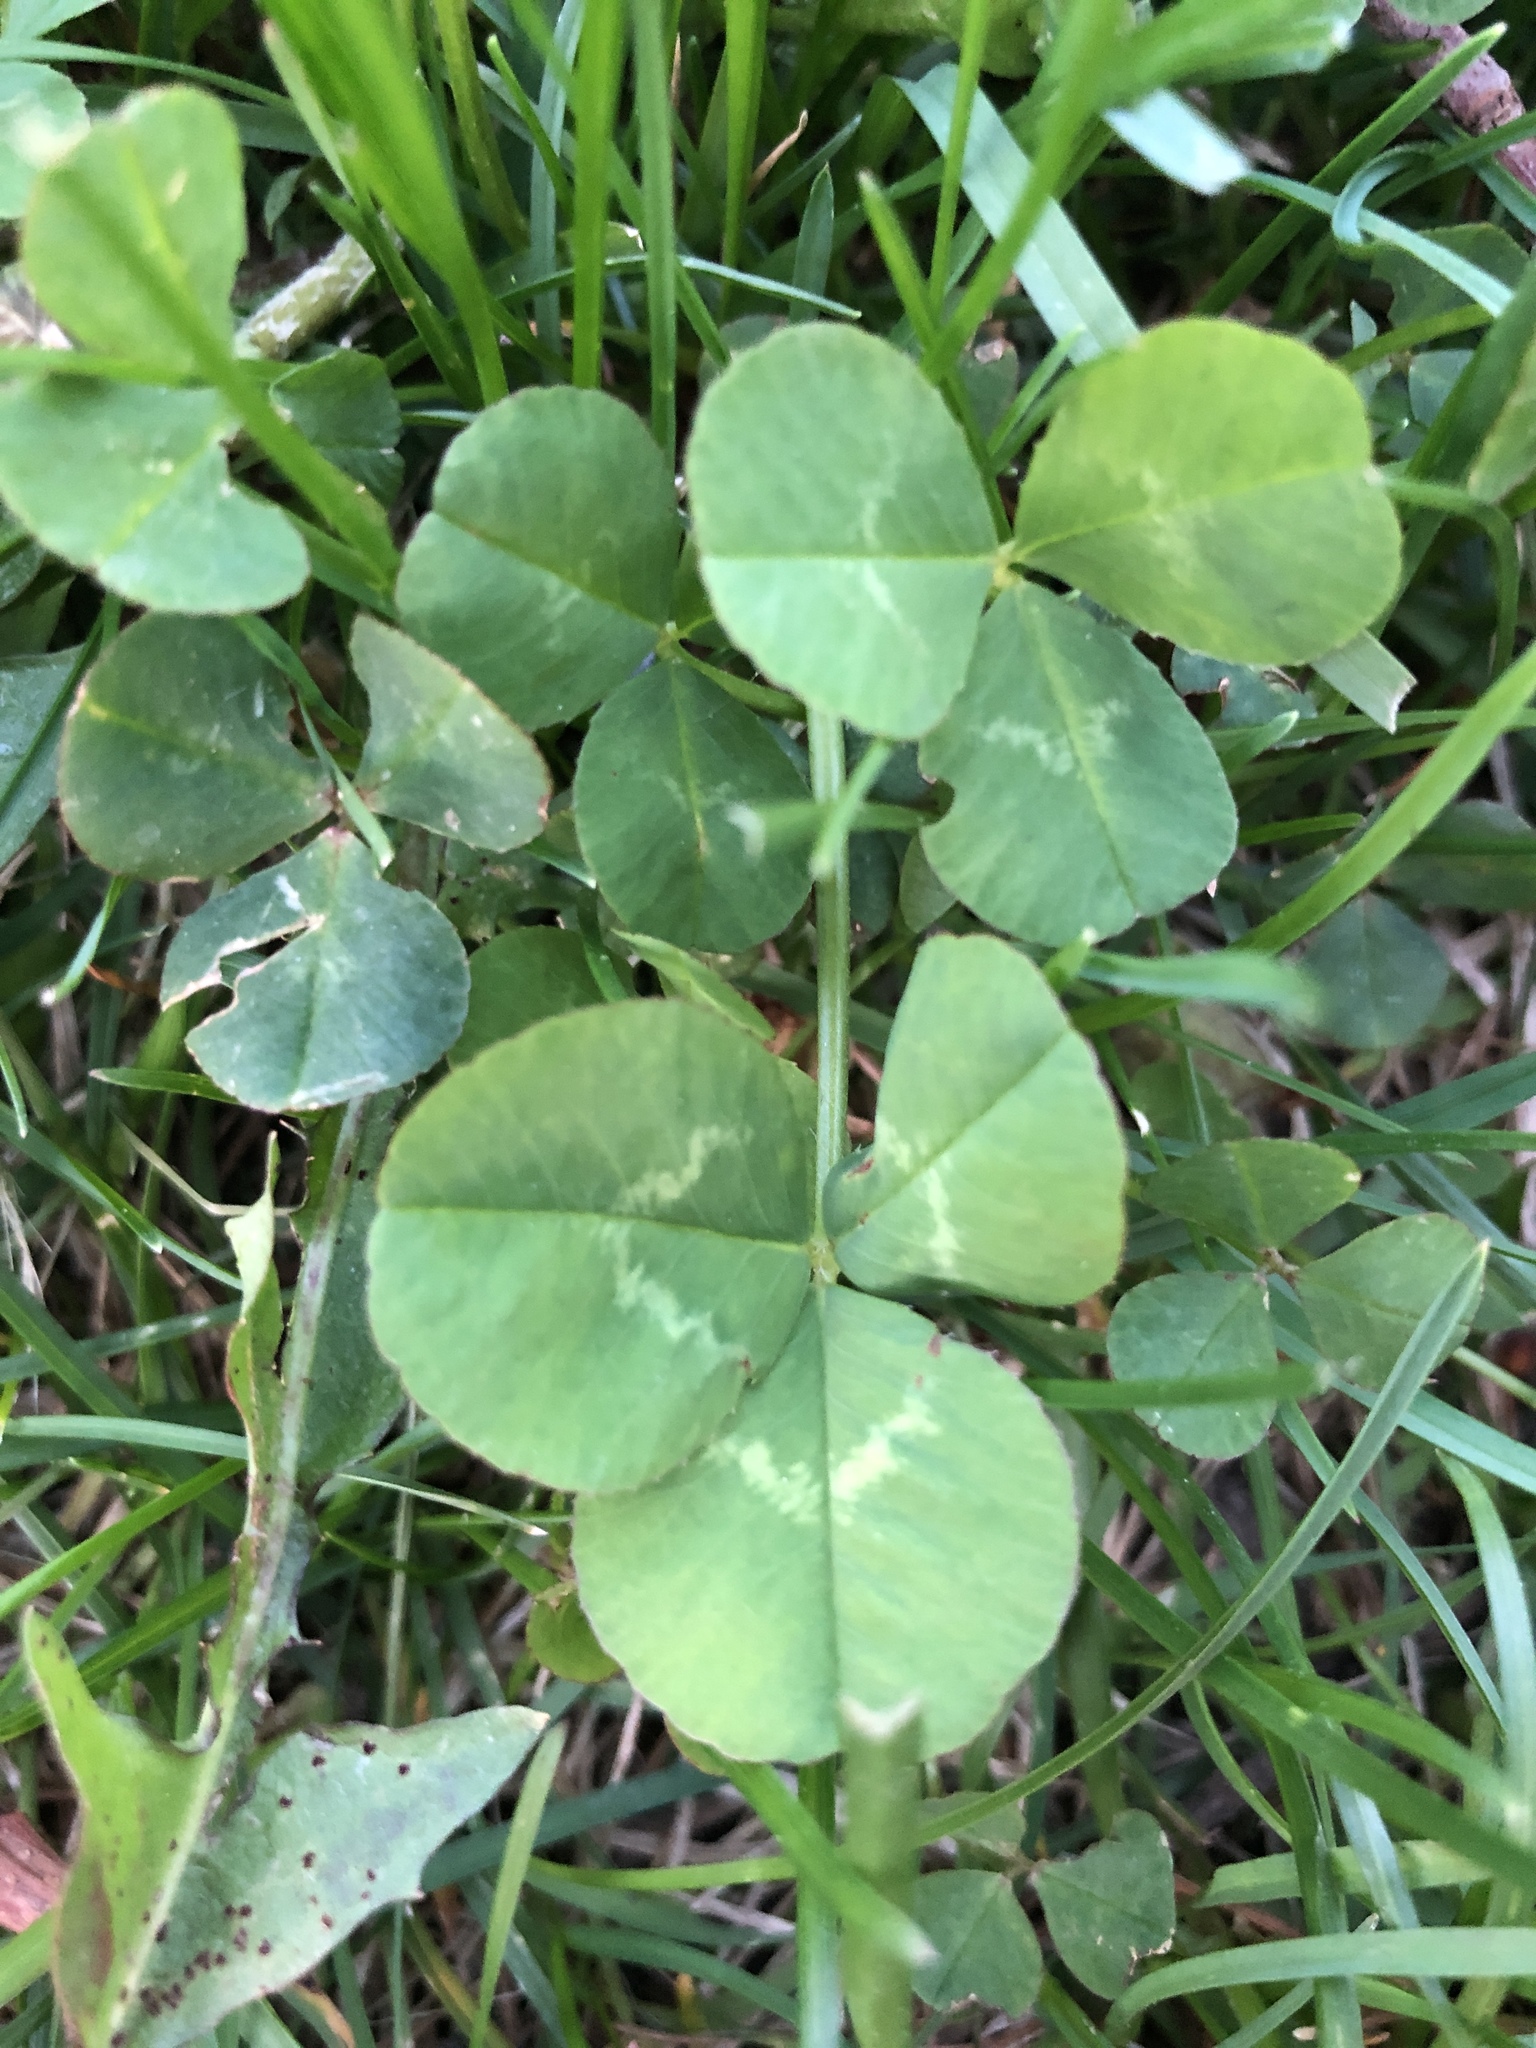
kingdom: Plantae
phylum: Tracheophyta
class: Magnoliopsida
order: Fabales
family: Fabaceae
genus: Trifolium
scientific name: Trifolium repens
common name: White clover
